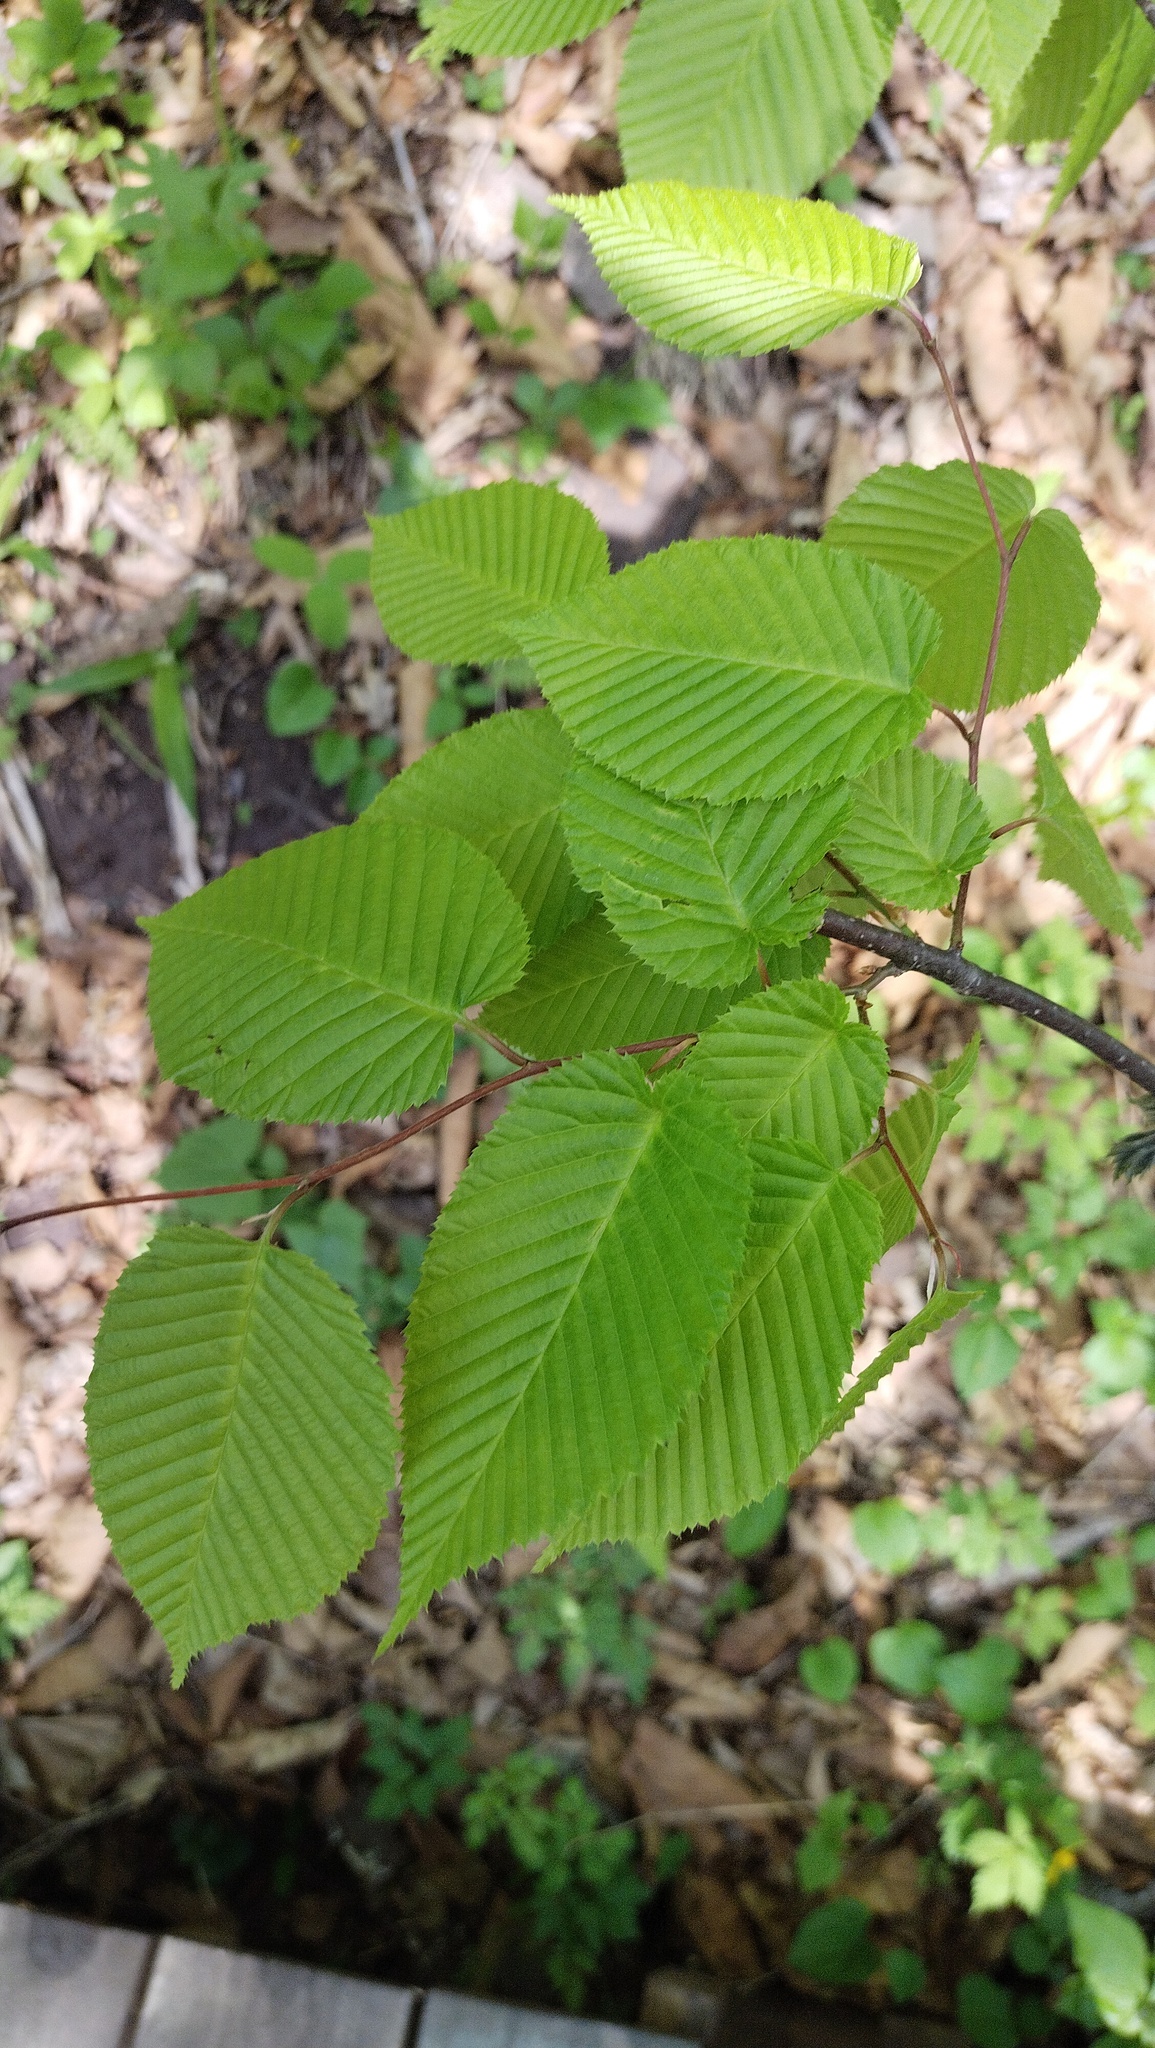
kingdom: Plantae
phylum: Tracheophyta
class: Magnoliopsida
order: Fagales
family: Betulaceae
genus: Carpinus
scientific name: Carpinus cordata
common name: Sawa hornbeam
